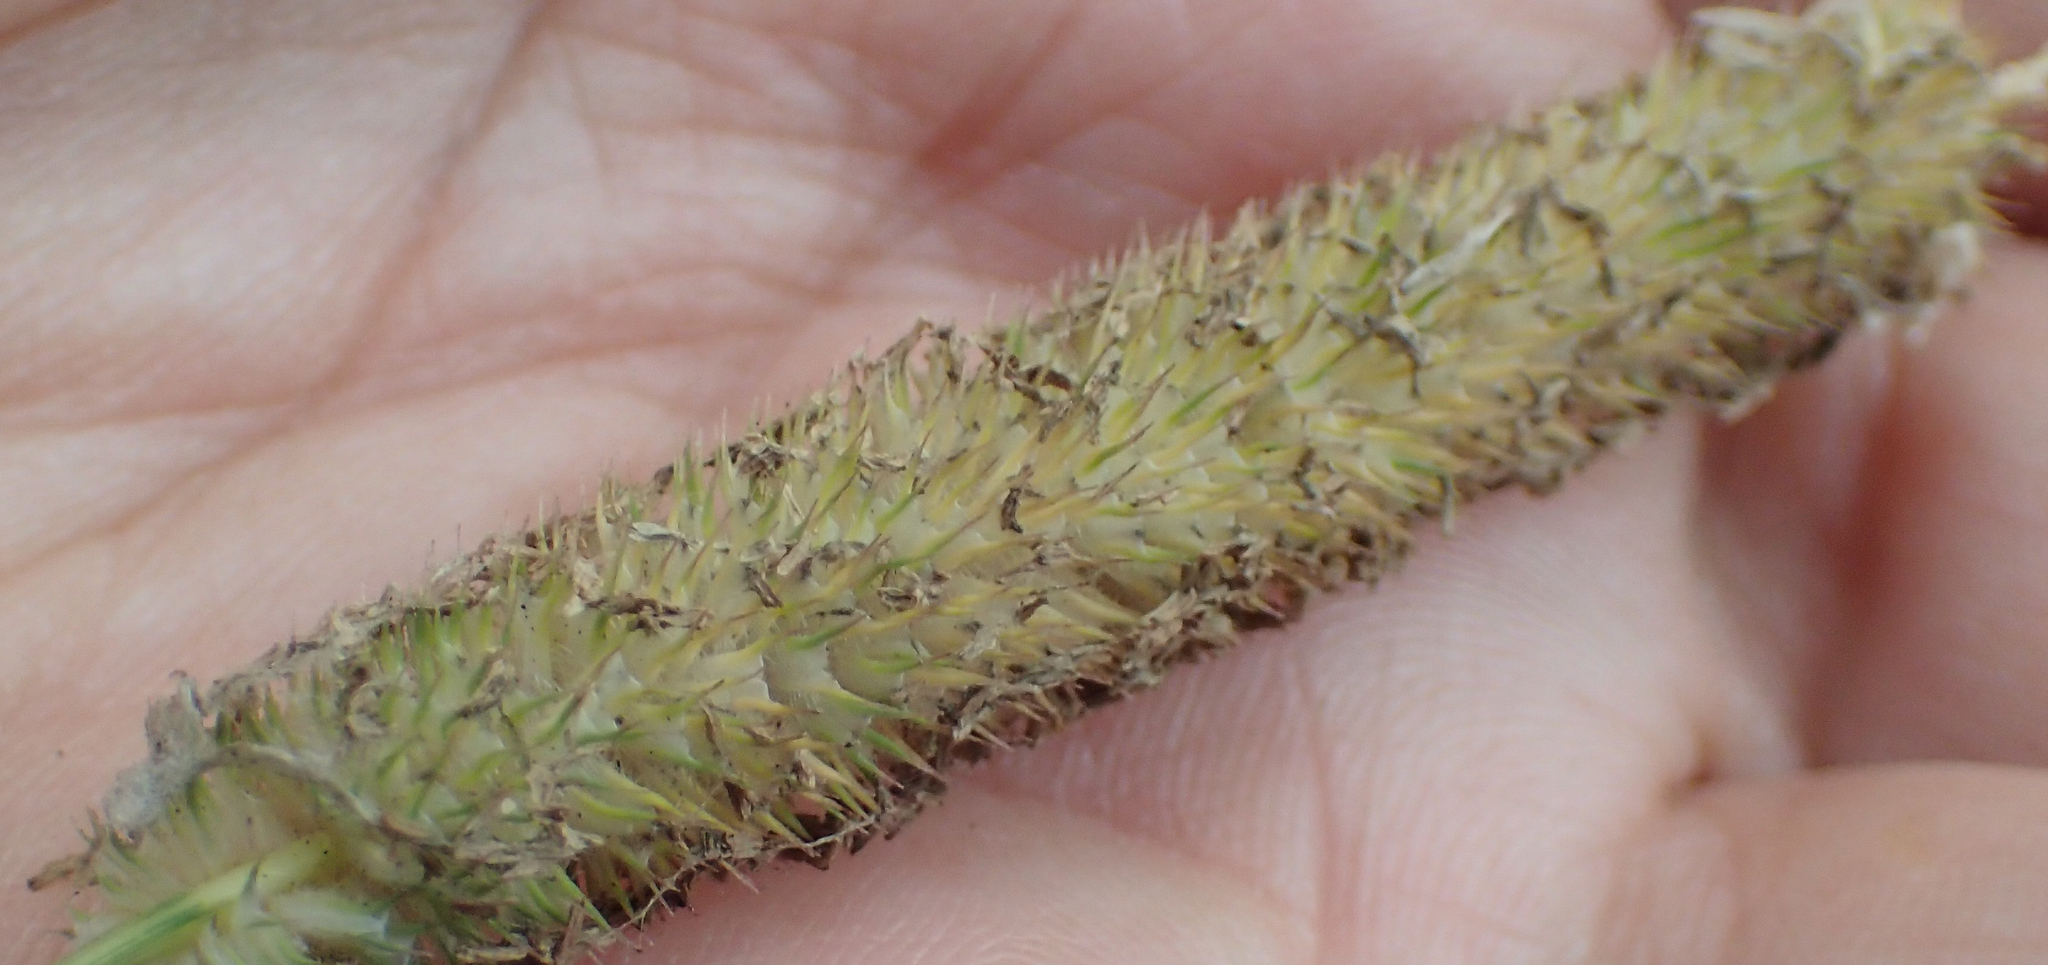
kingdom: Plantae
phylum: Tracheophyta
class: Liliopsida
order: Poales
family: Poaceae
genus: Phleum
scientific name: Phleum pratense
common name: Timothy grass
